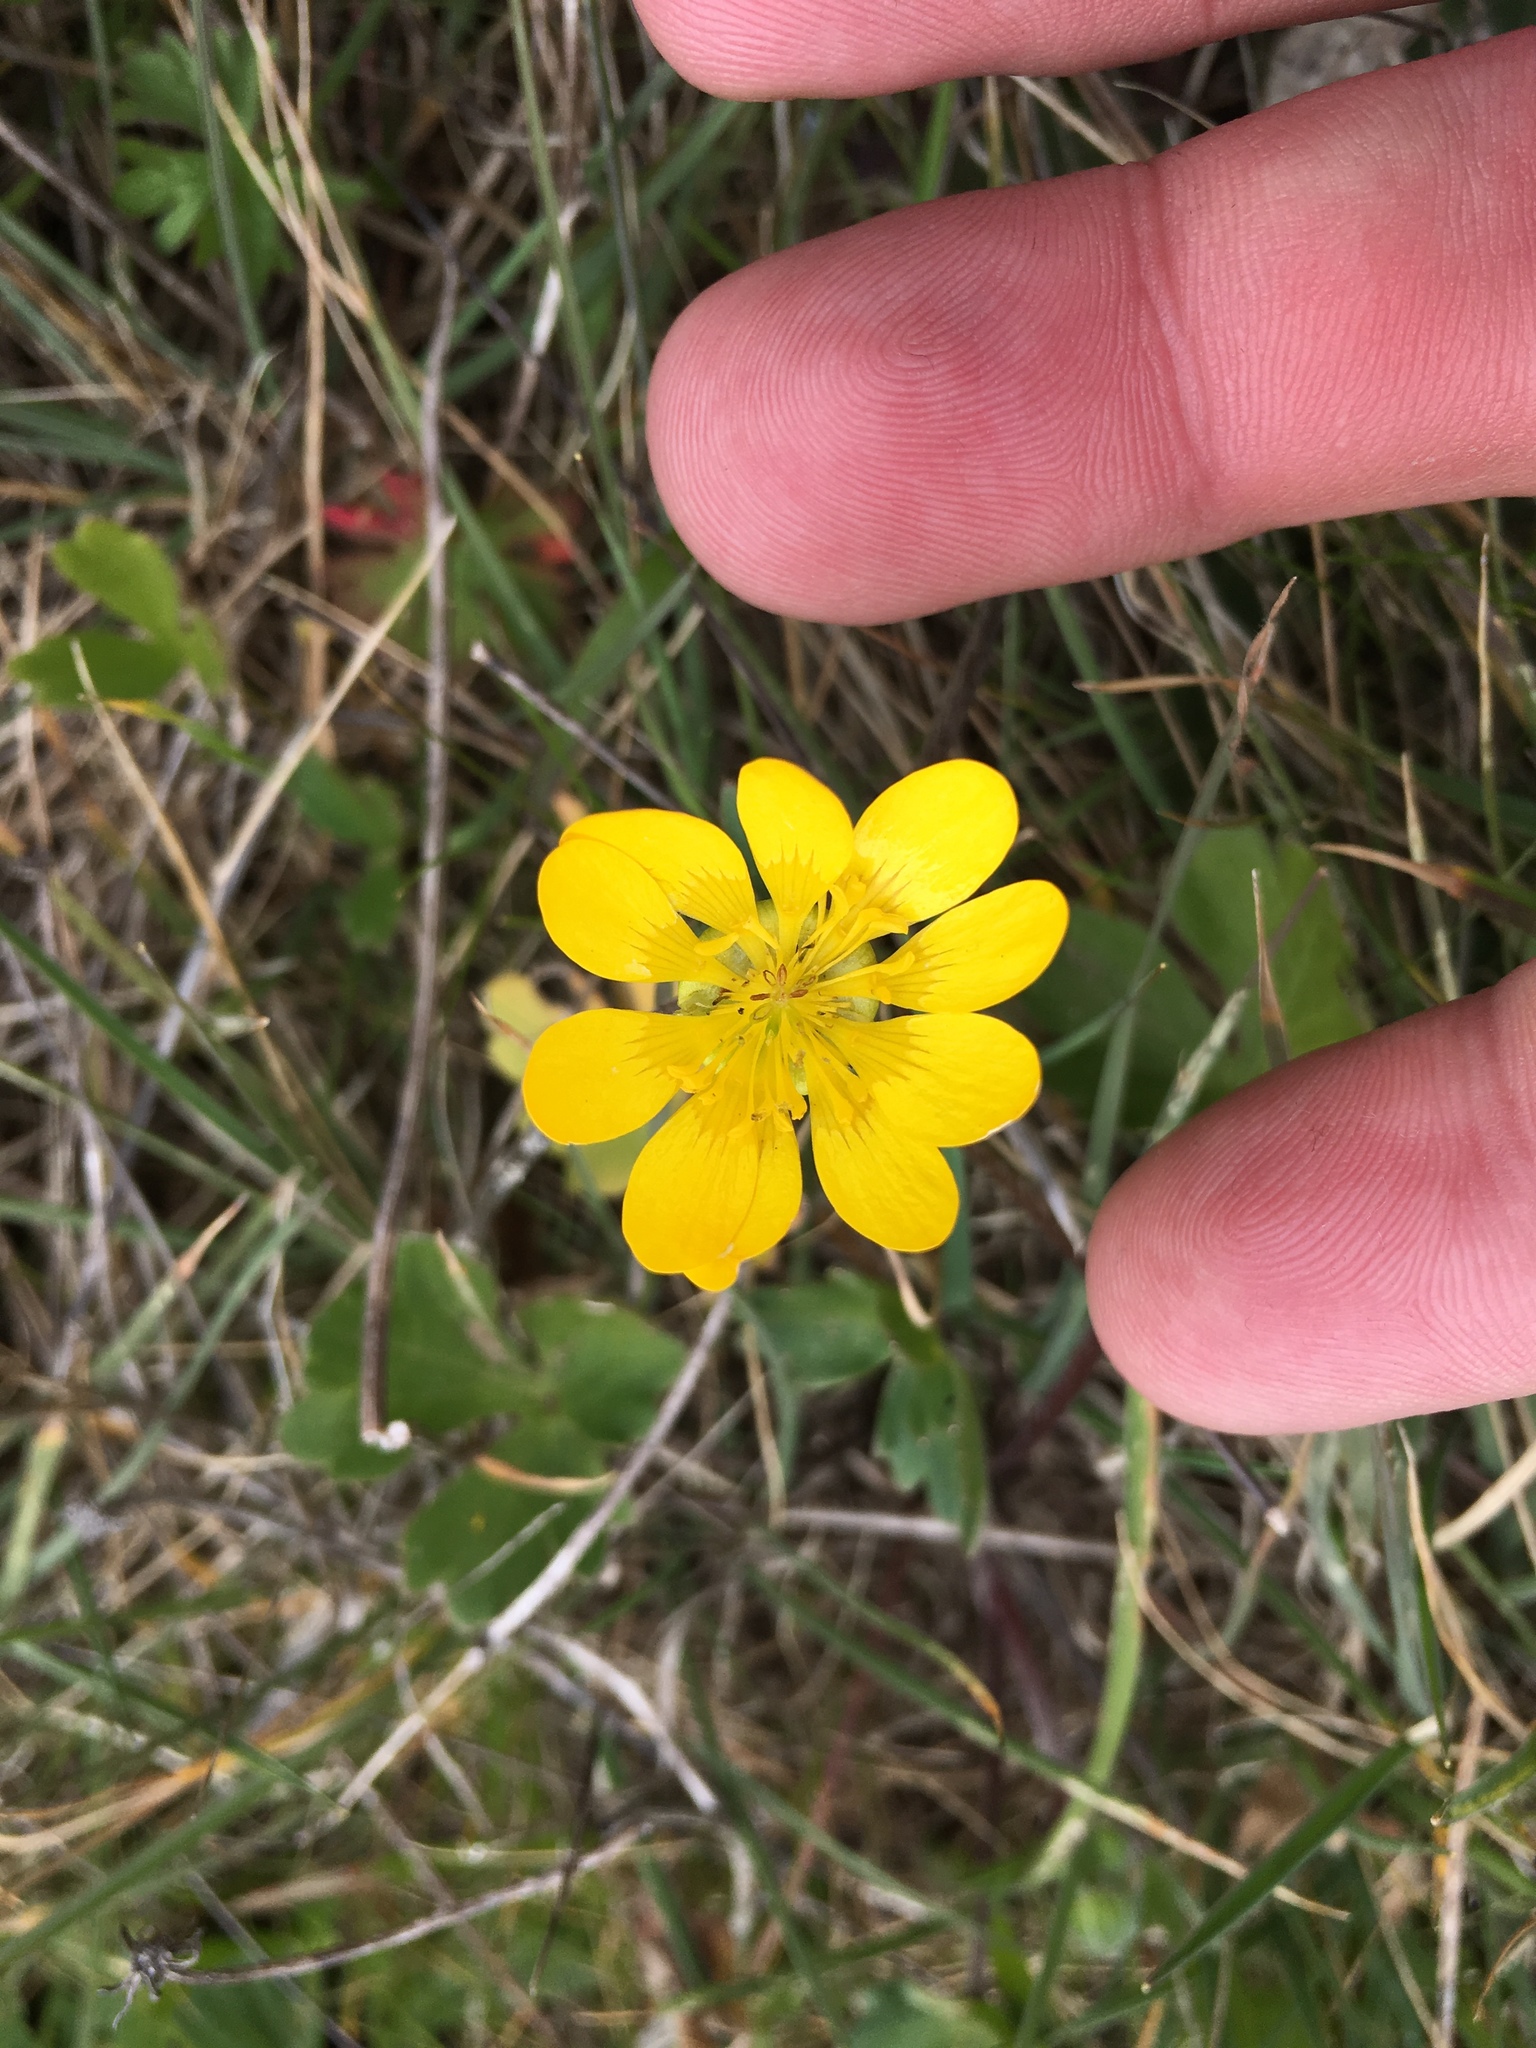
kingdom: Plantae
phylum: Tracheophyta
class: Magnoliopsida
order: Ranunculales
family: Ranunculaceae
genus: Ranunculus
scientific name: Ranunculus californicus
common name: California buttercup
